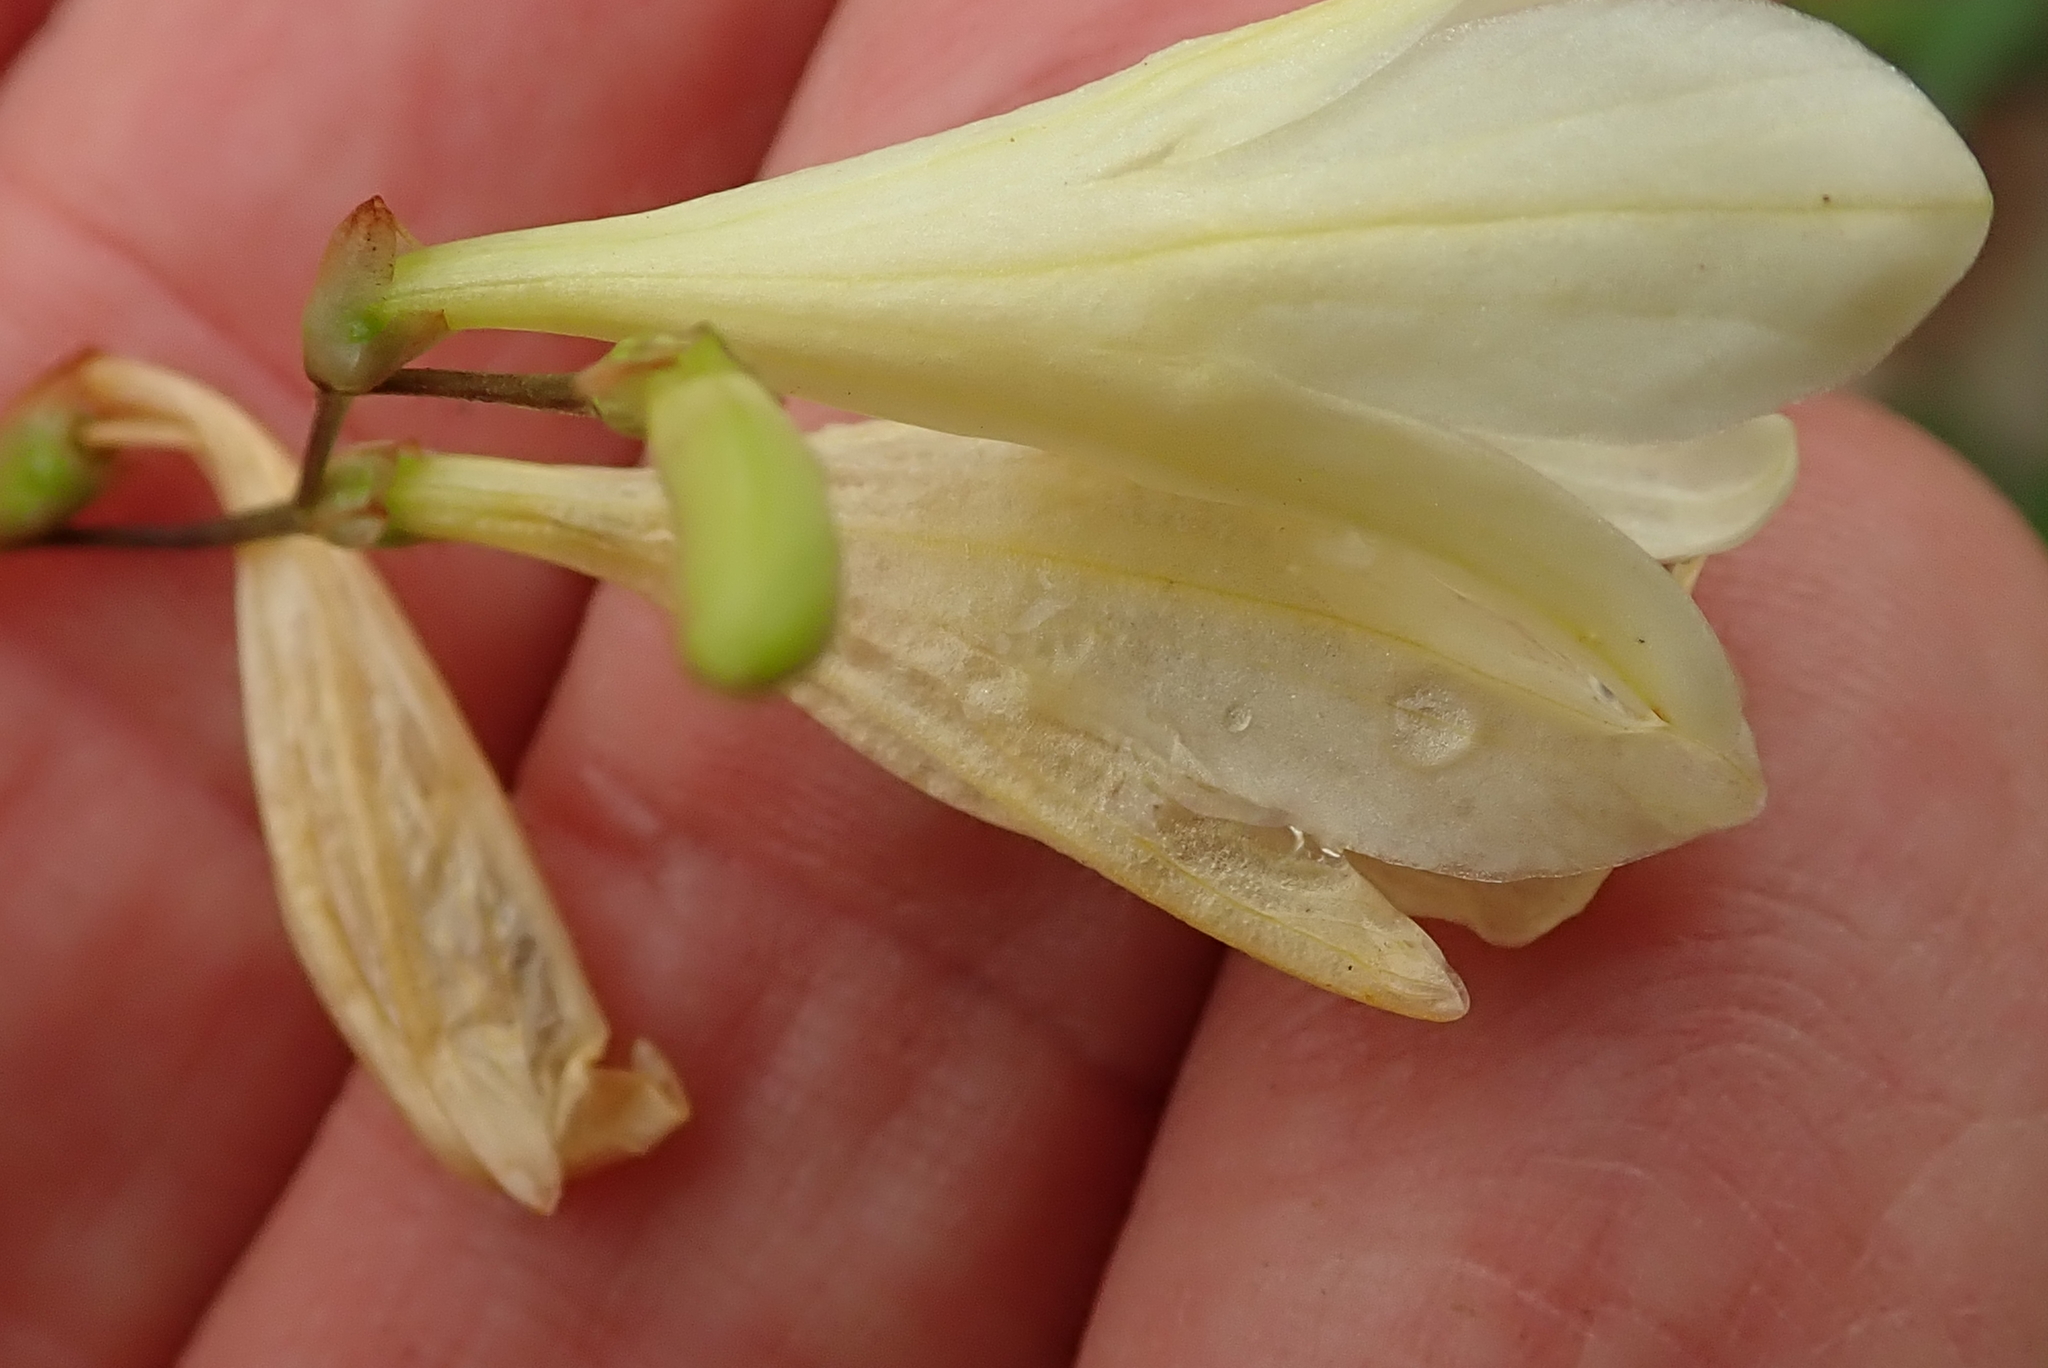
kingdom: Plantae
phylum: Tracheophyta
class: Liliopsida
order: Asparagales
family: Iridaceae
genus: Tritonia
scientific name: Tritonia gladiolaris
